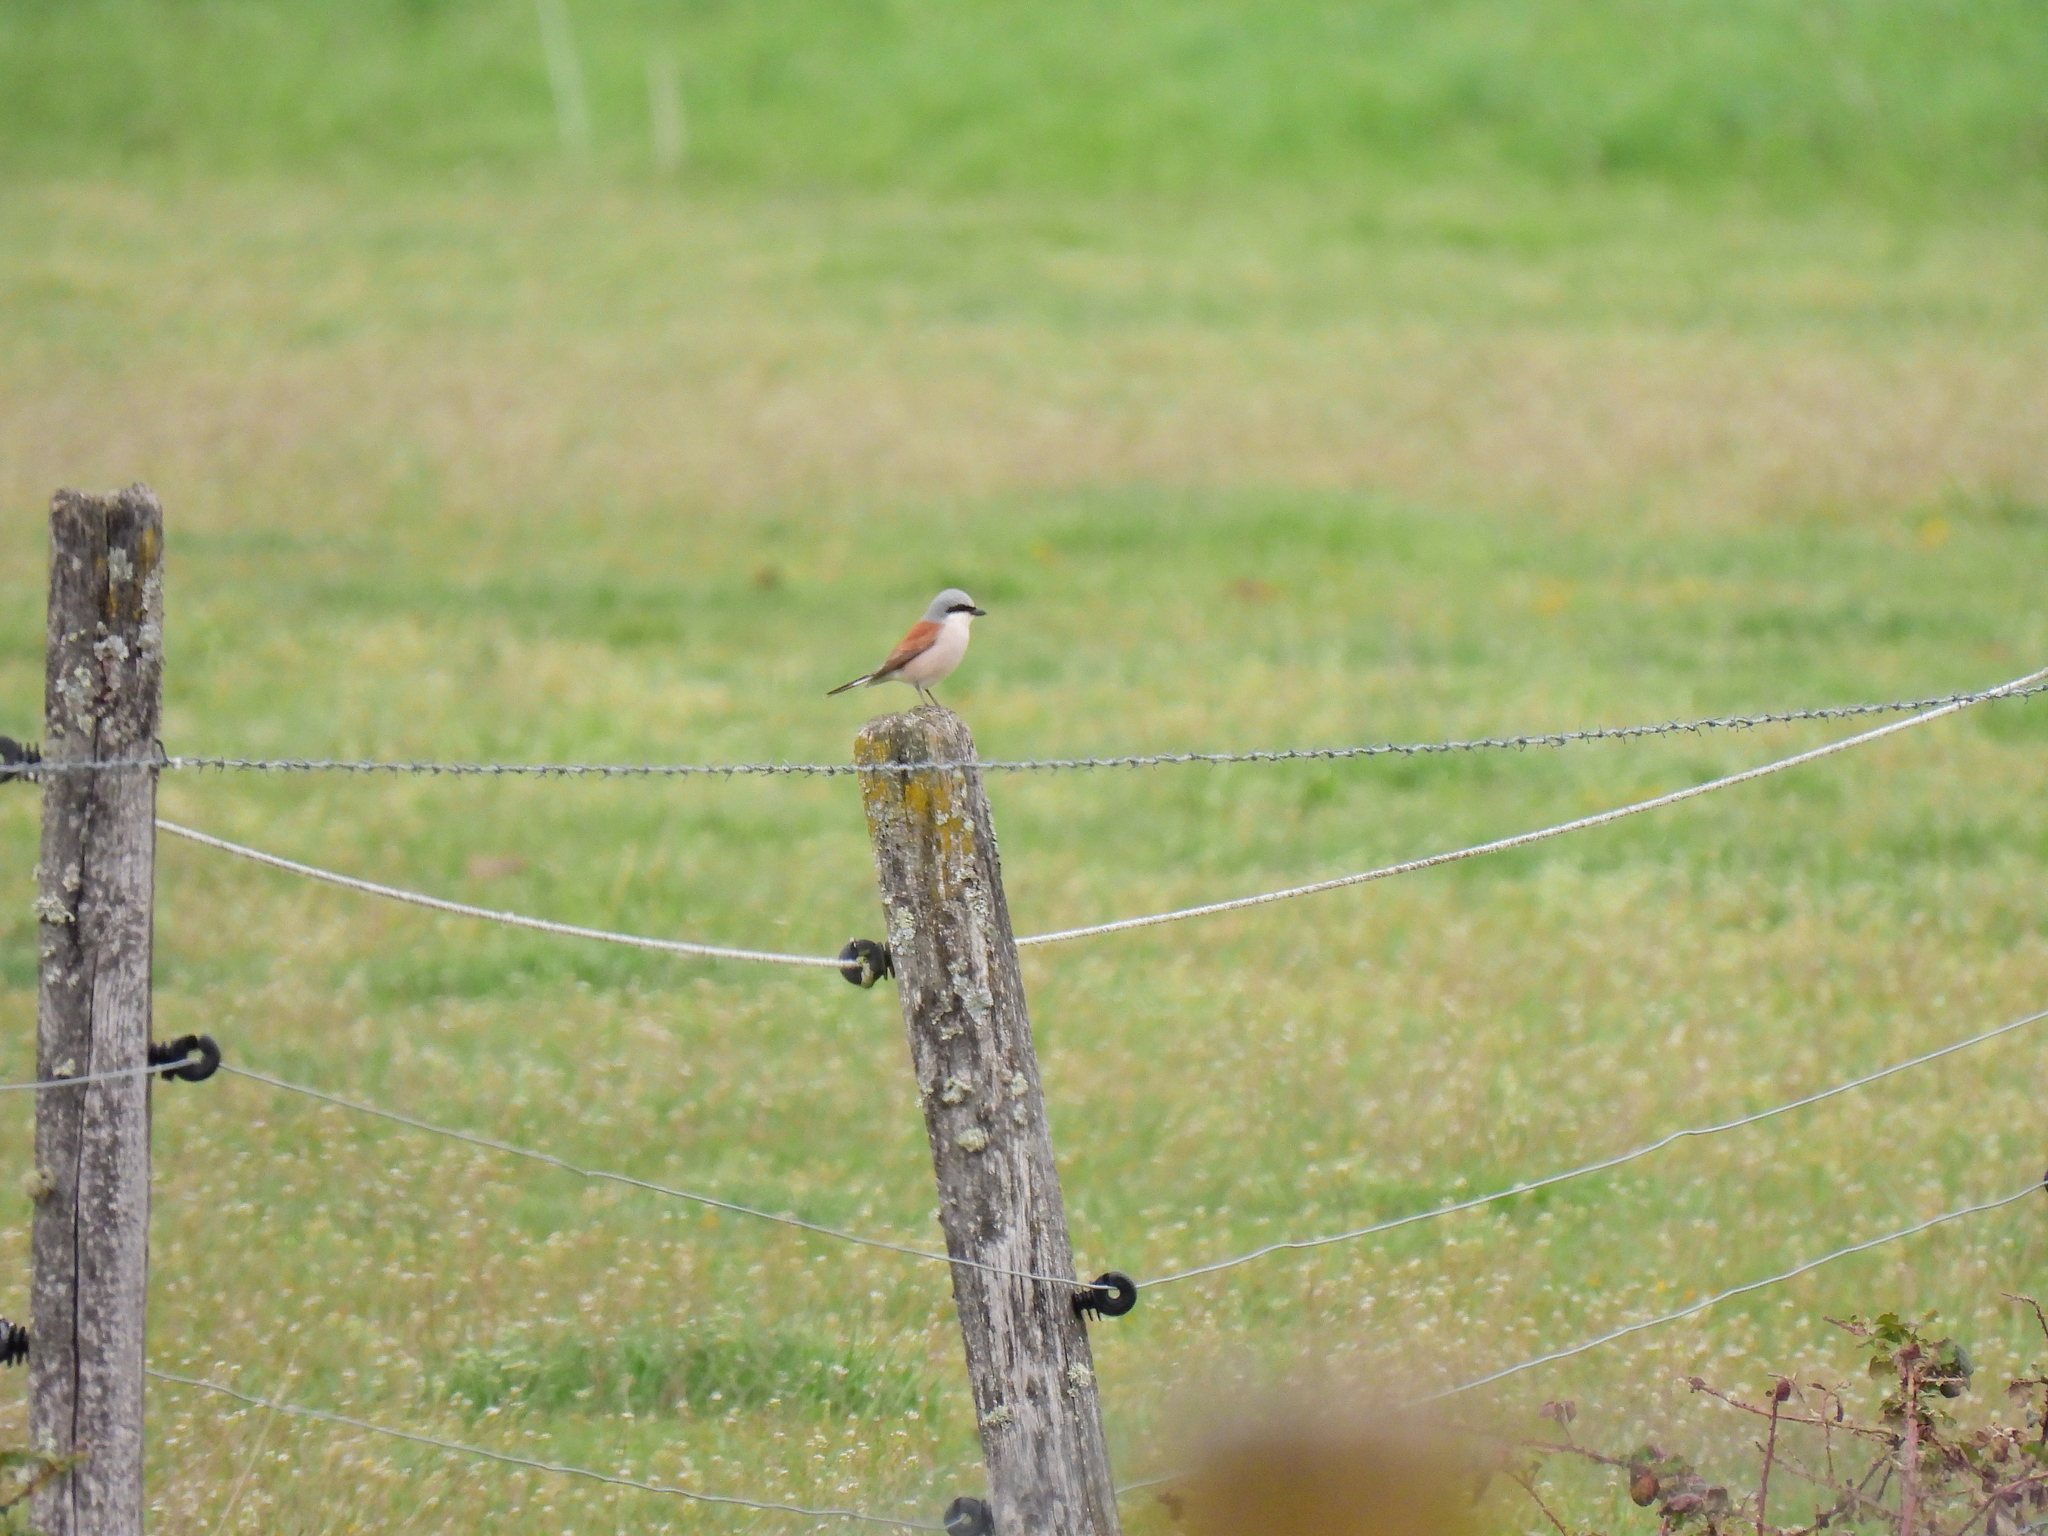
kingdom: Animalia
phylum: Chordata
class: Aves
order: Passeriformes
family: Laniidae
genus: Lanius
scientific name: Lanius collurio
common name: Red-backed shrike
